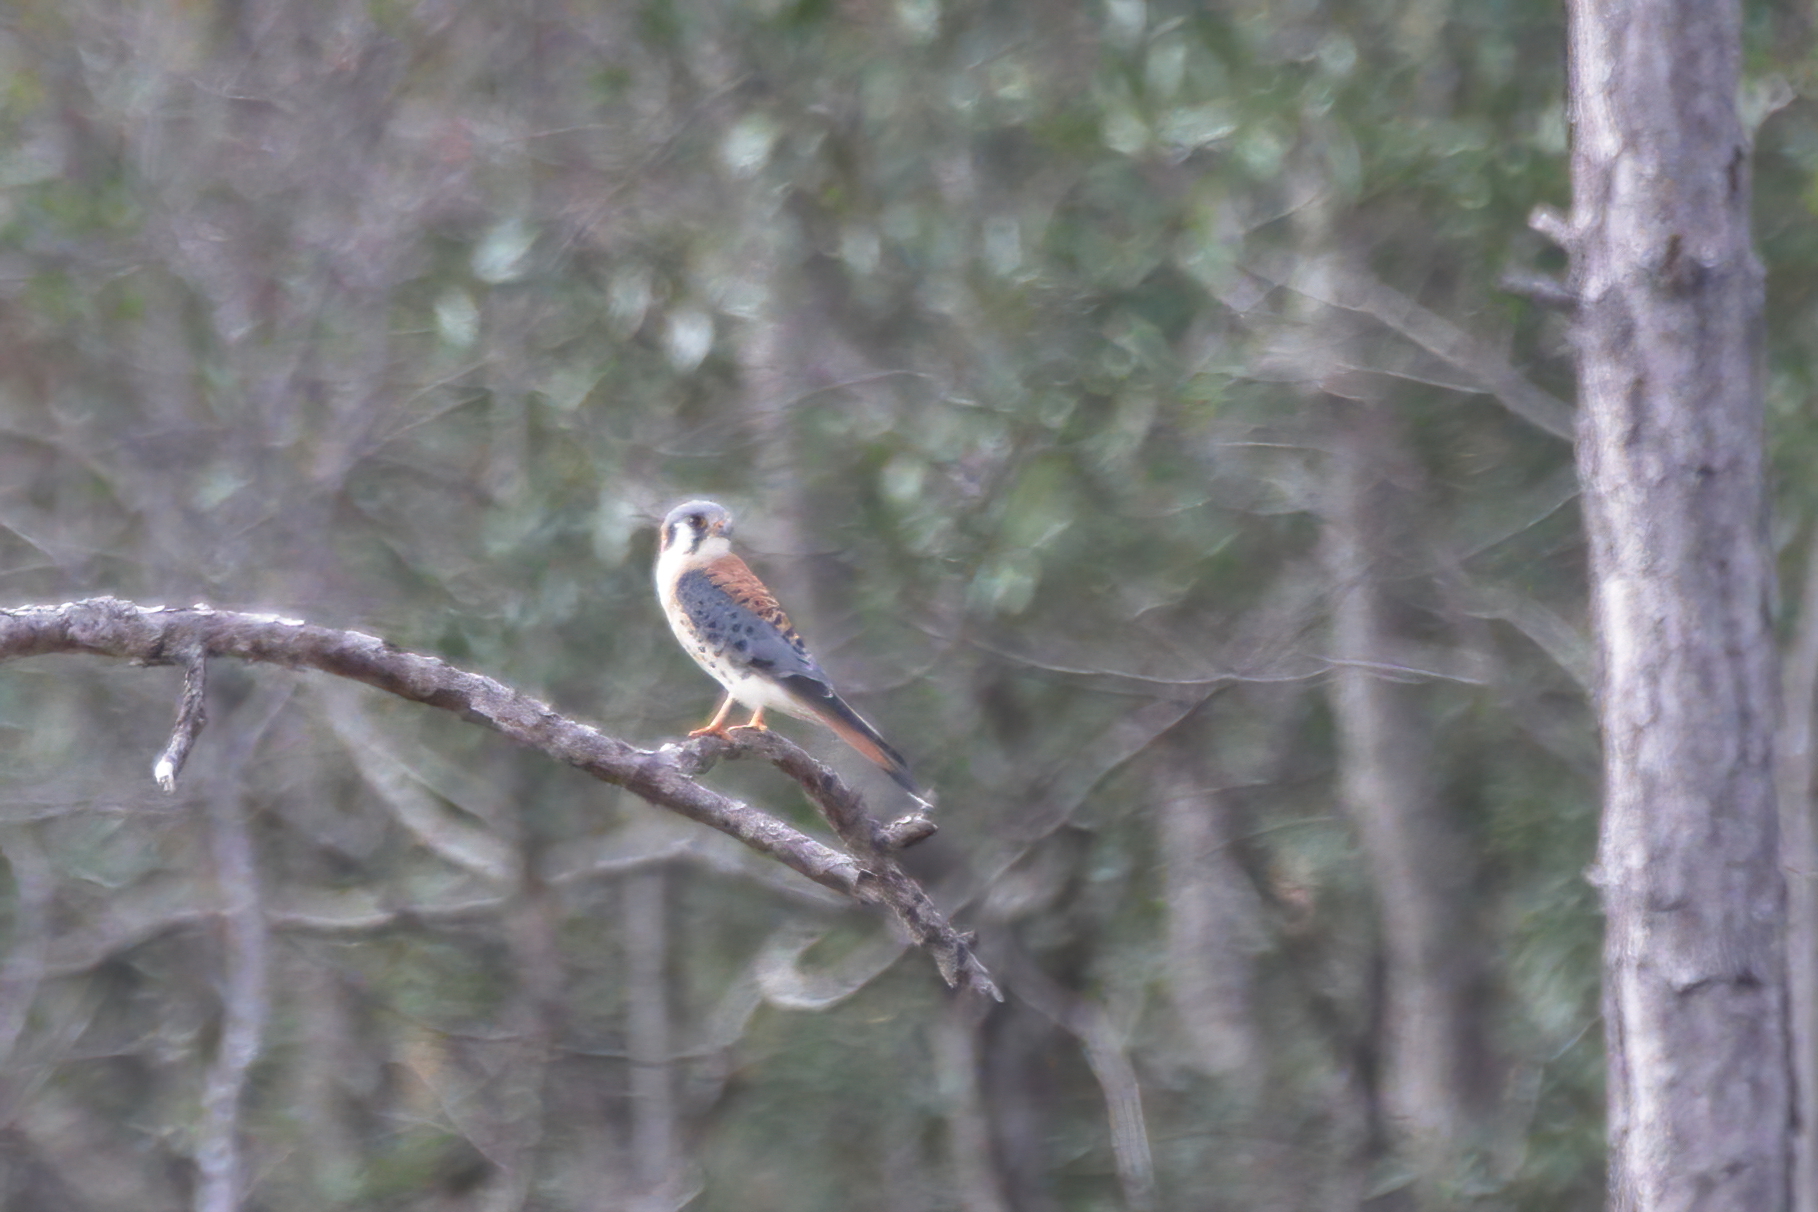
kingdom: Animalia
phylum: Chordata
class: Aves
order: Falconiformes
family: Falconidae
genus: Falco
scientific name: Falco sparverius
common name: American kestrel
